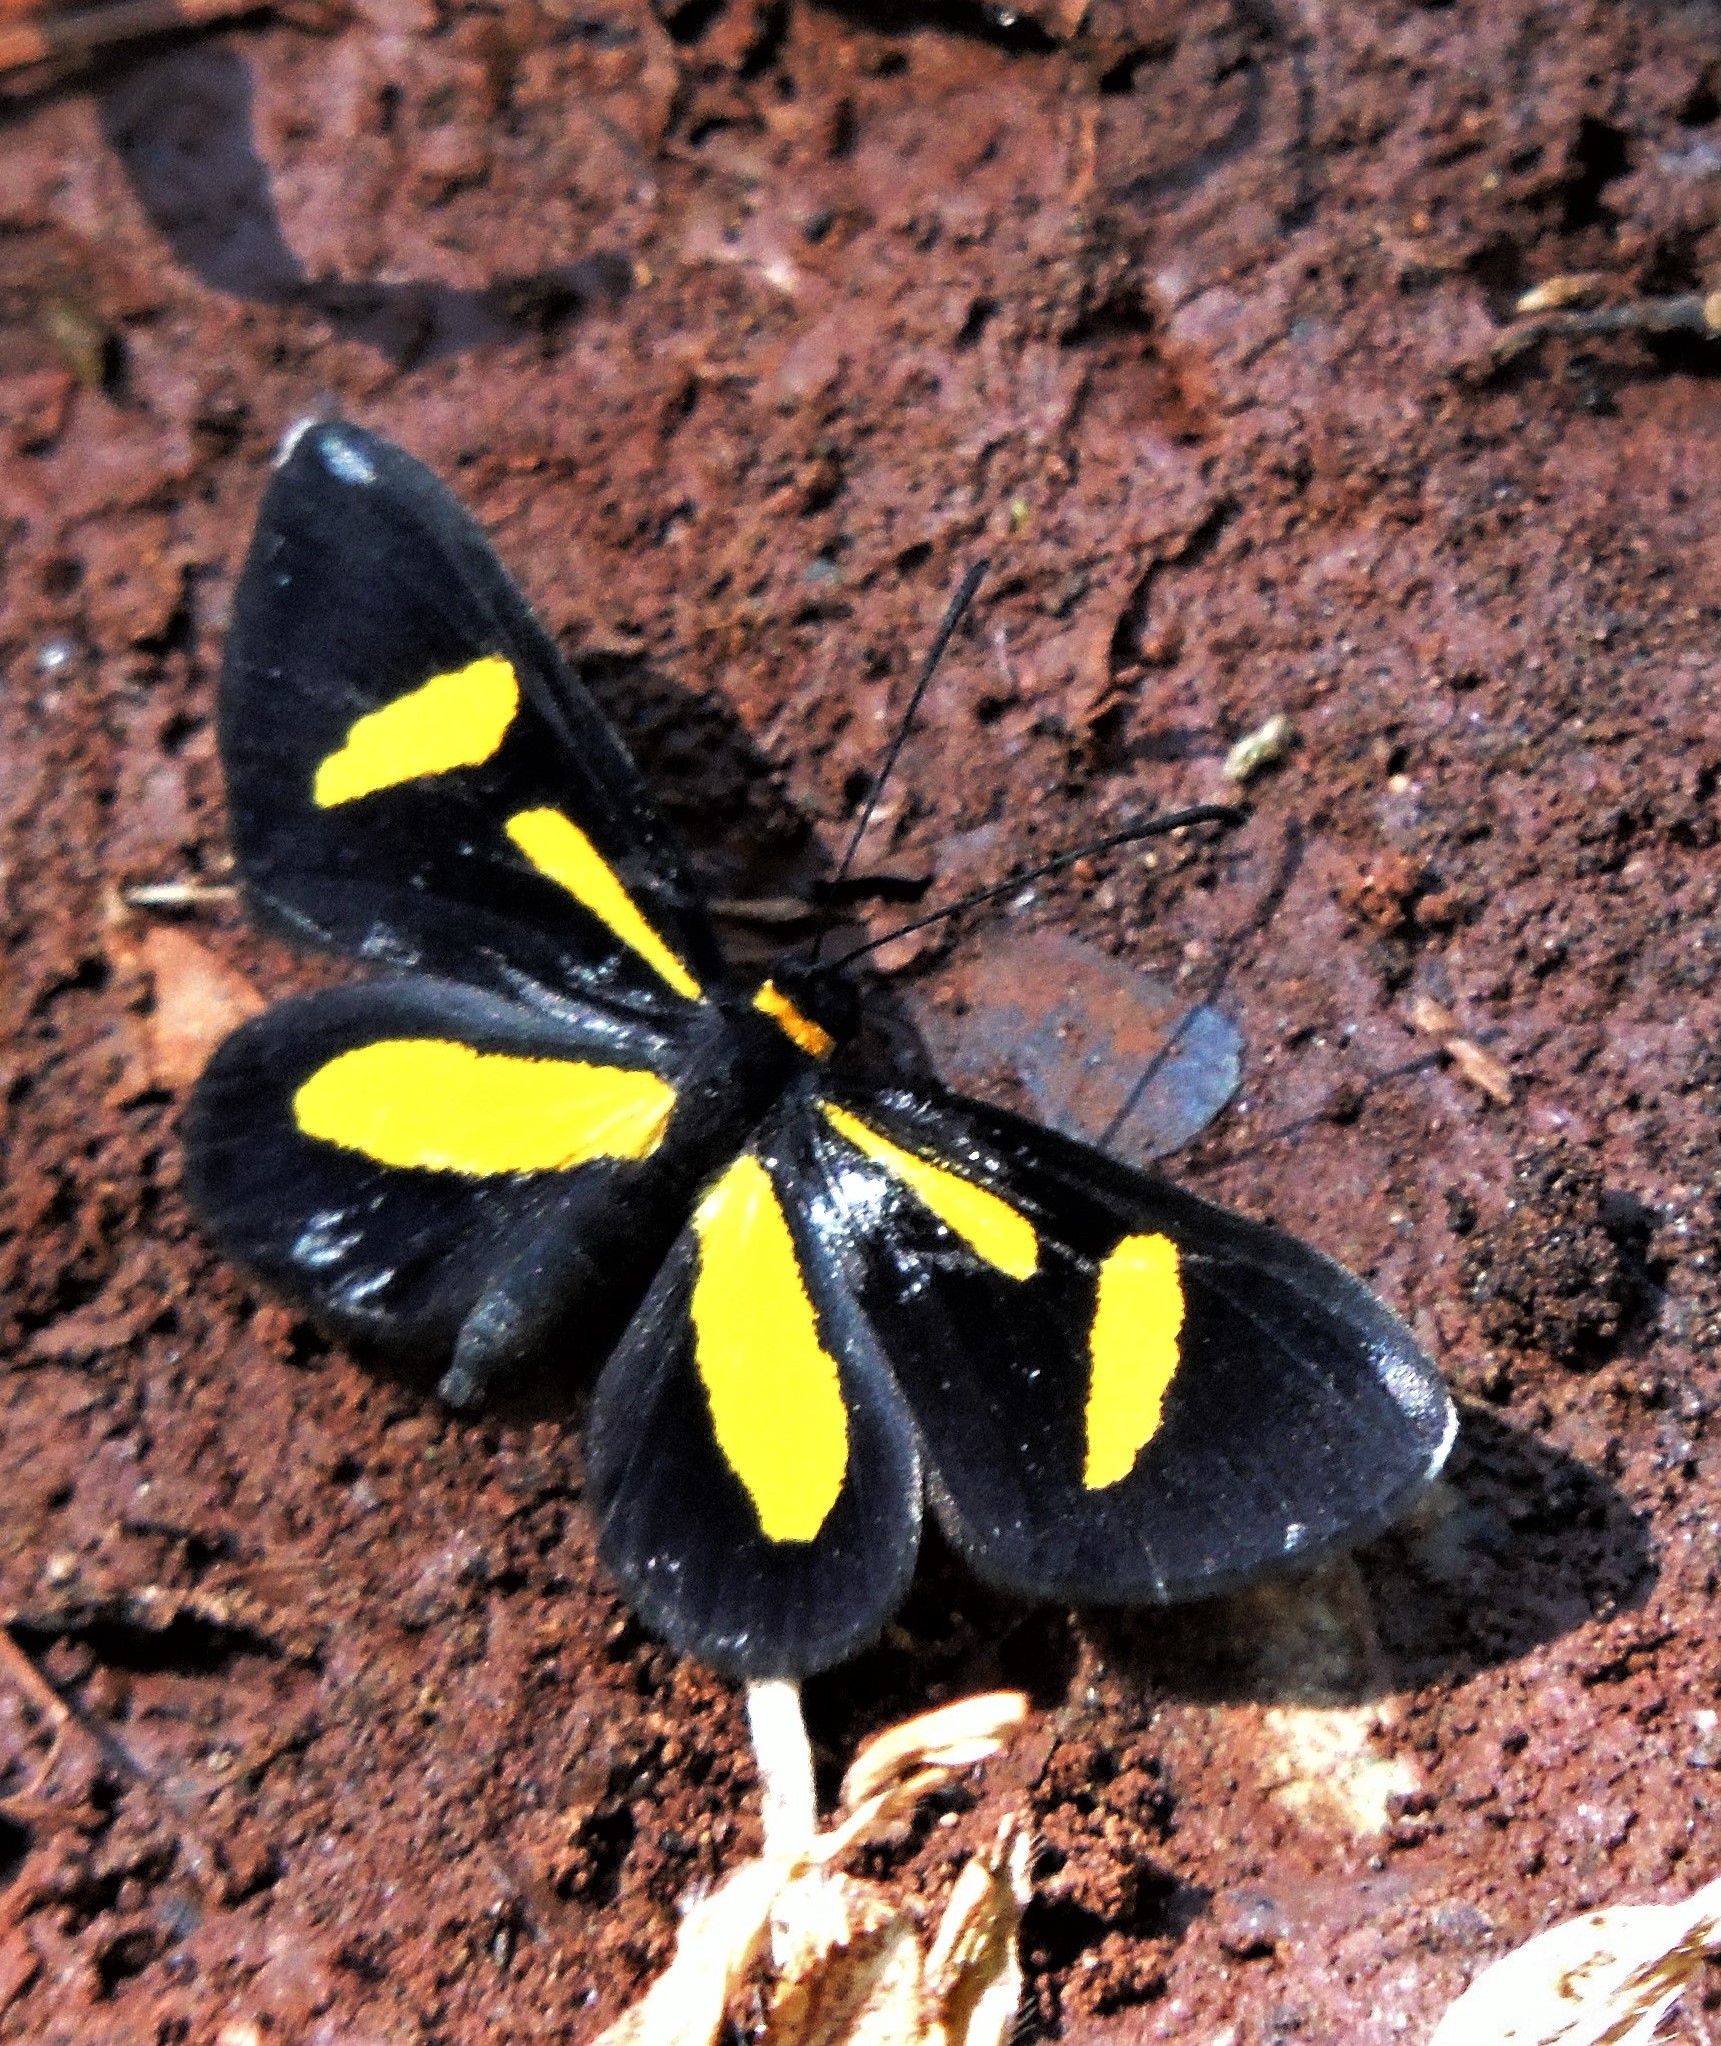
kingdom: Animalia
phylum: Arthropoda
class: Insecta
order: Lepidoptera
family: Riodinidae
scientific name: Riodinidae
